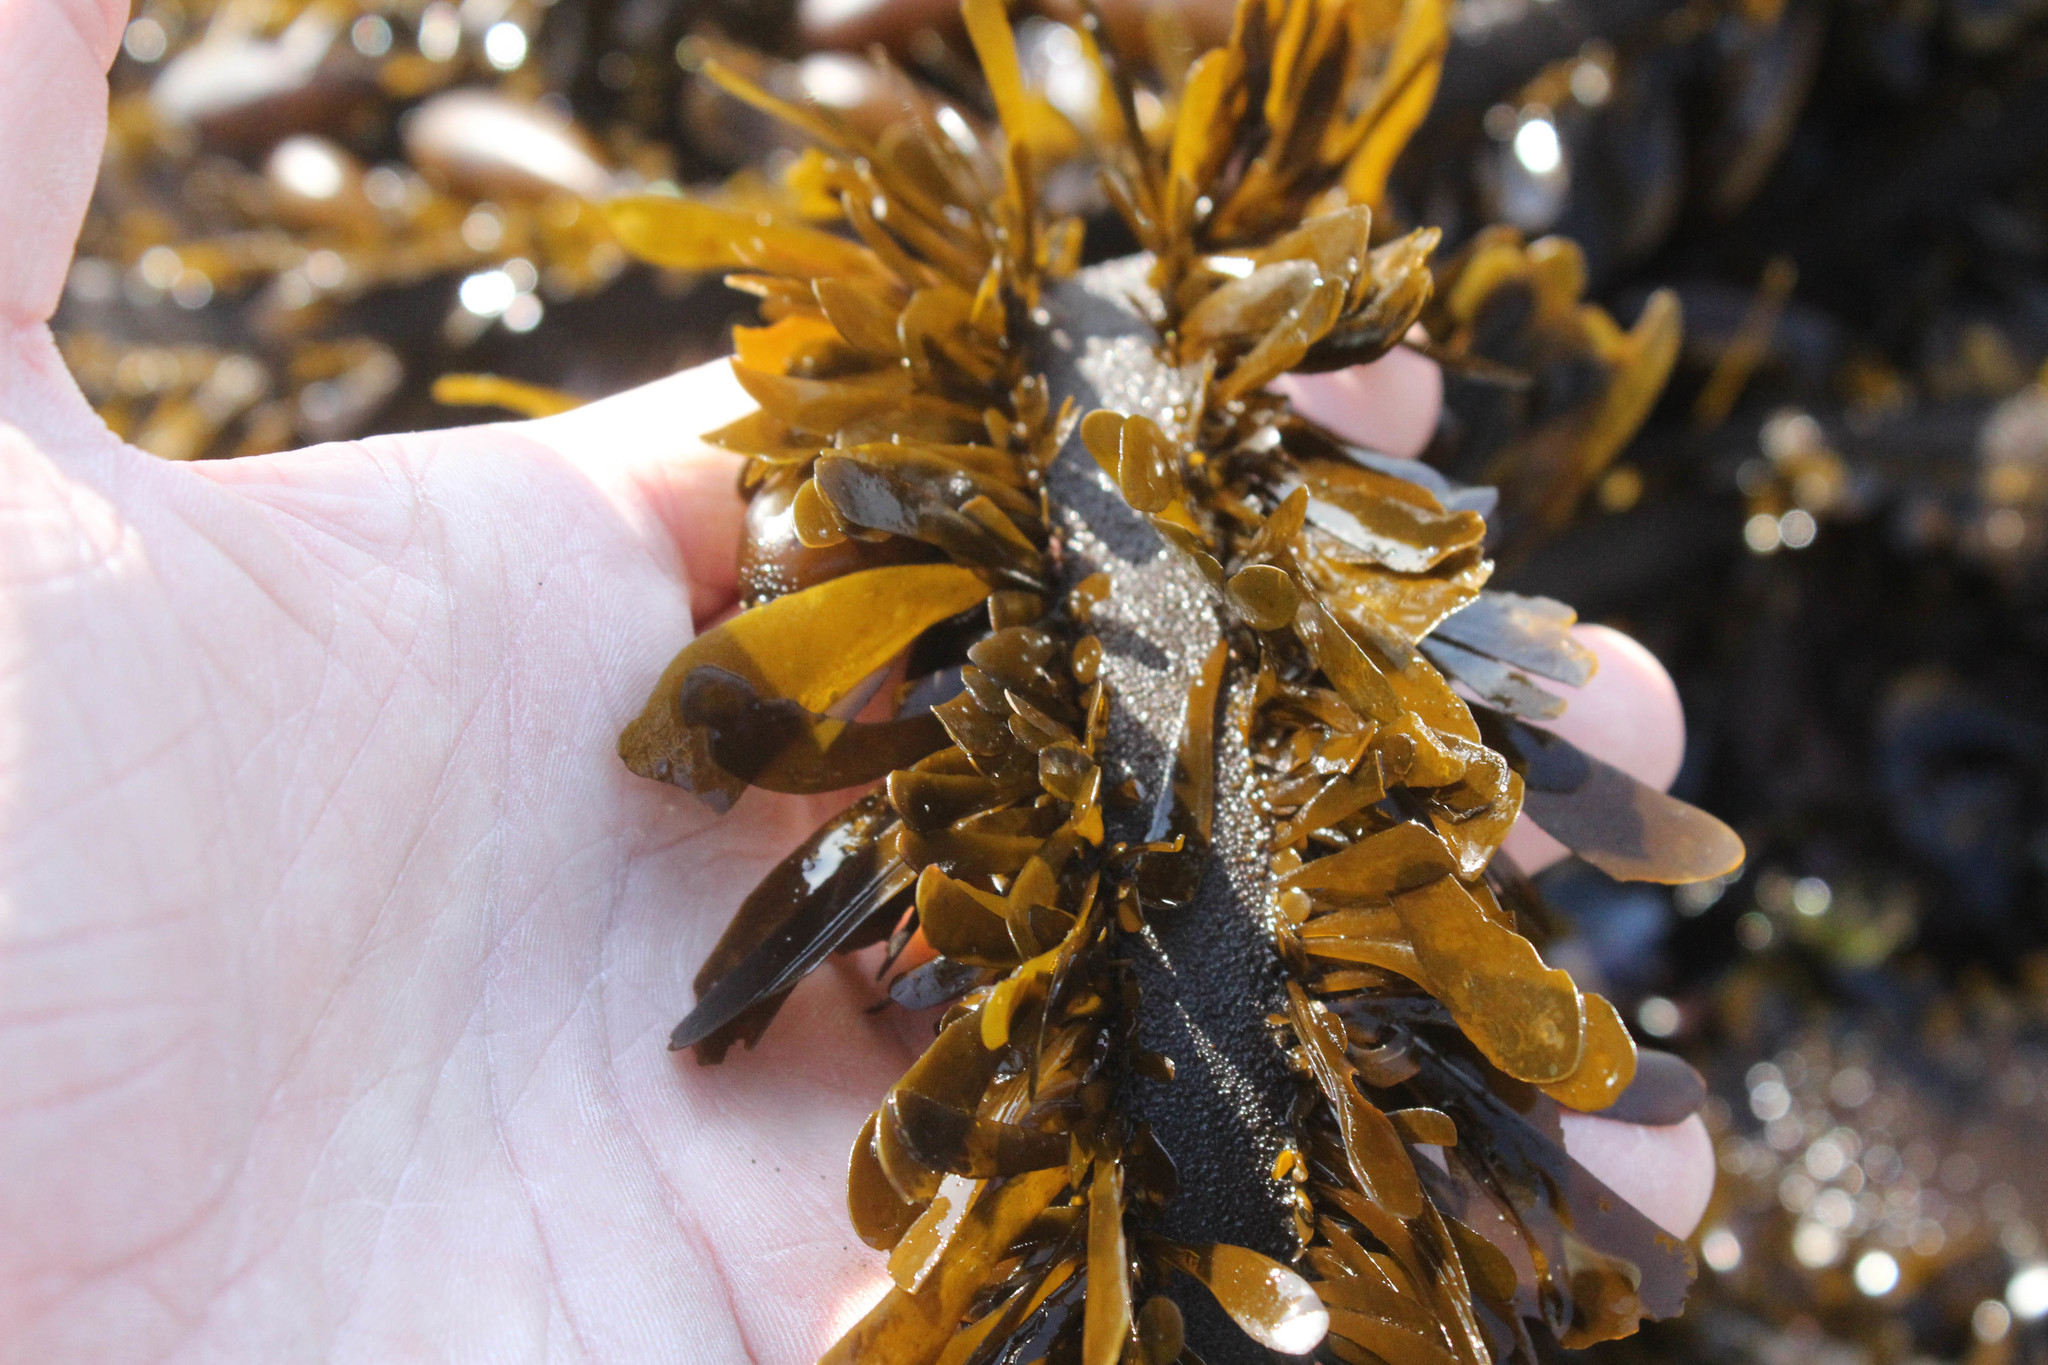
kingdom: Chromista
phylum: Ochrophyta
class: Phaeophyceae
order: Laminariales
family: Lessoniaceae
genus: Egregia
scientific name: Egregia menziesii
